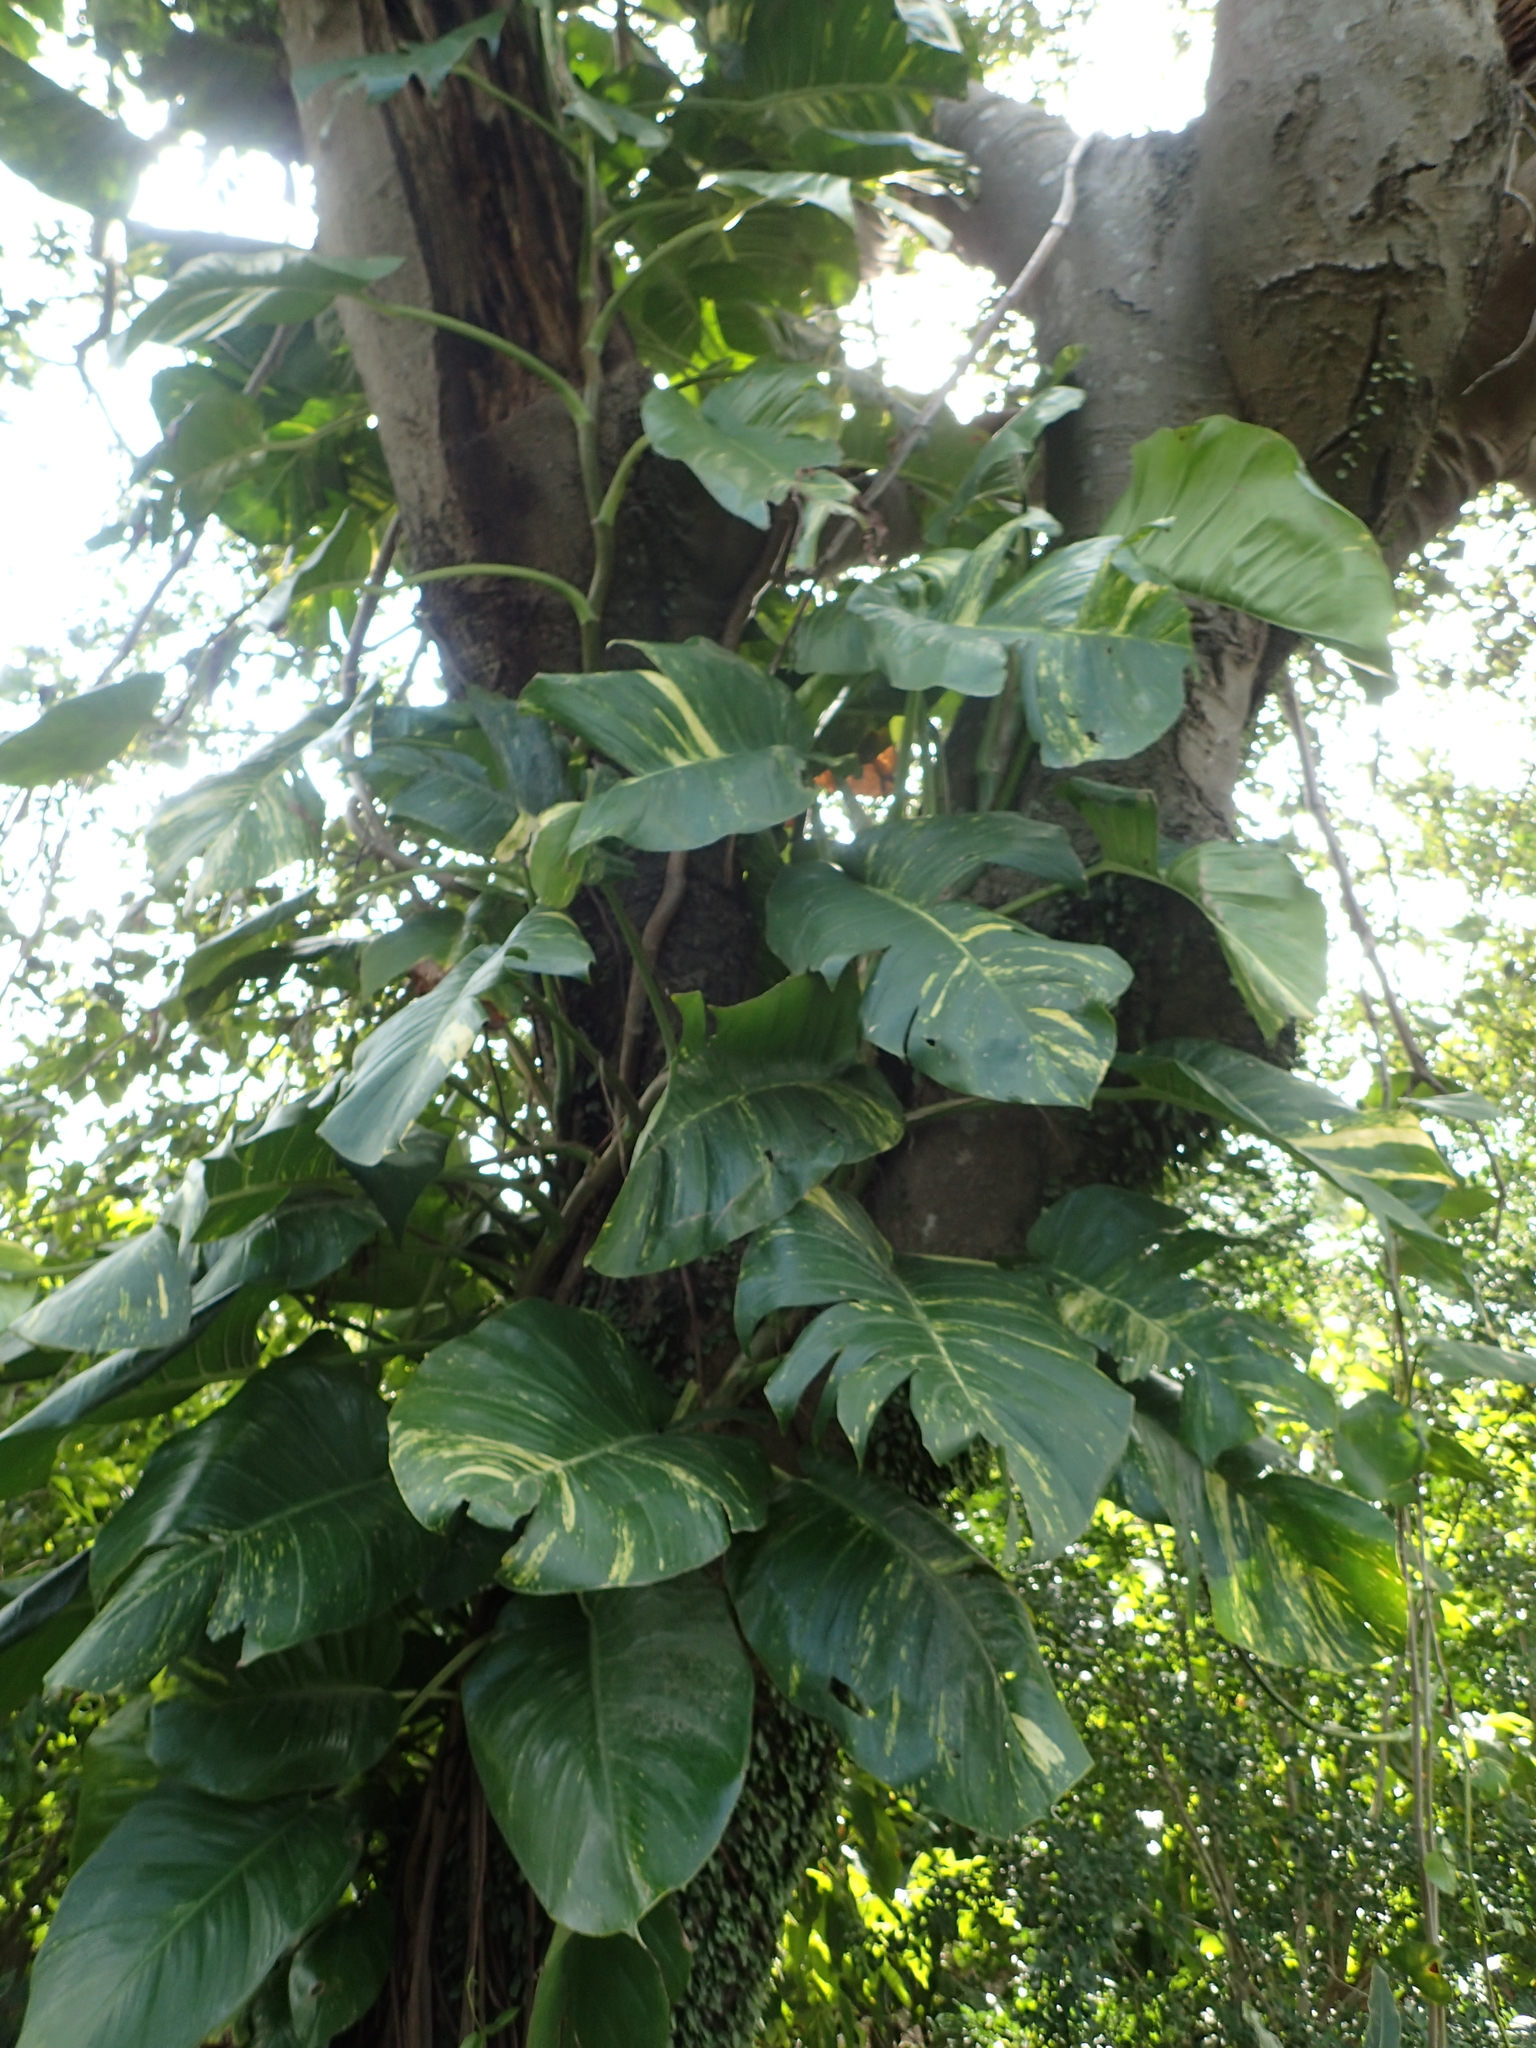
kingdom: Plantae
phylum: Tracheophyta
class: Liliopsida
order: Alismatales
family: Araceae
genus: Epipremnum
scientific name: Epipremnum aureum
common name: Golden hunter's-robe
